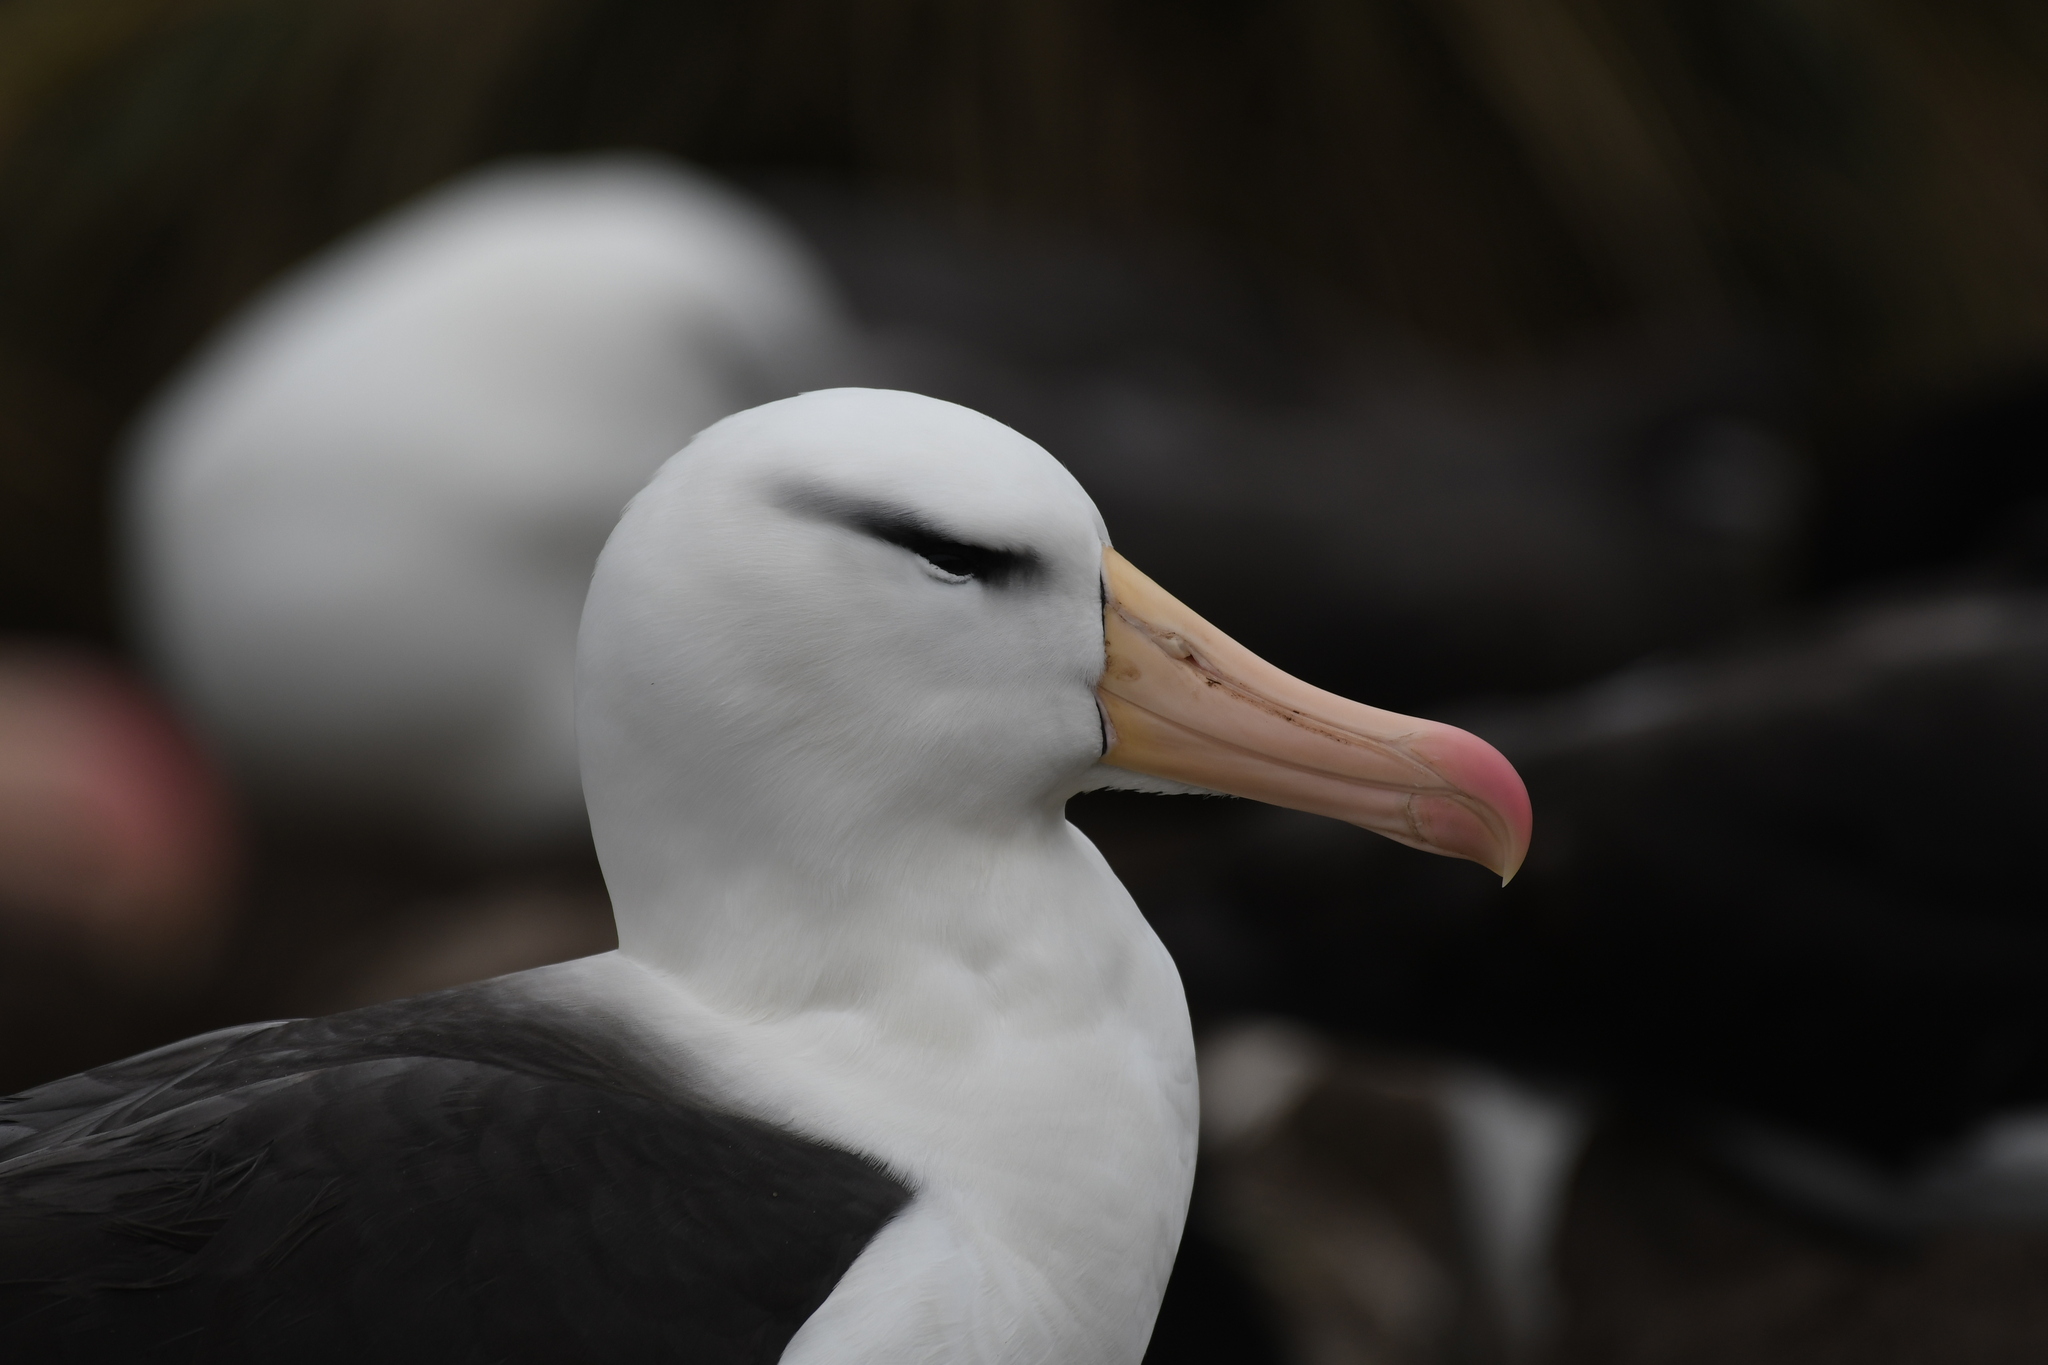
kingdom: Animalia
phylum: Chordata
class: Aves
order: Procellariiformes
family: Diomedeidae
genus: Thalassarche
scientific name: Thalassarche melanophris
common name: Black-browed albatross
